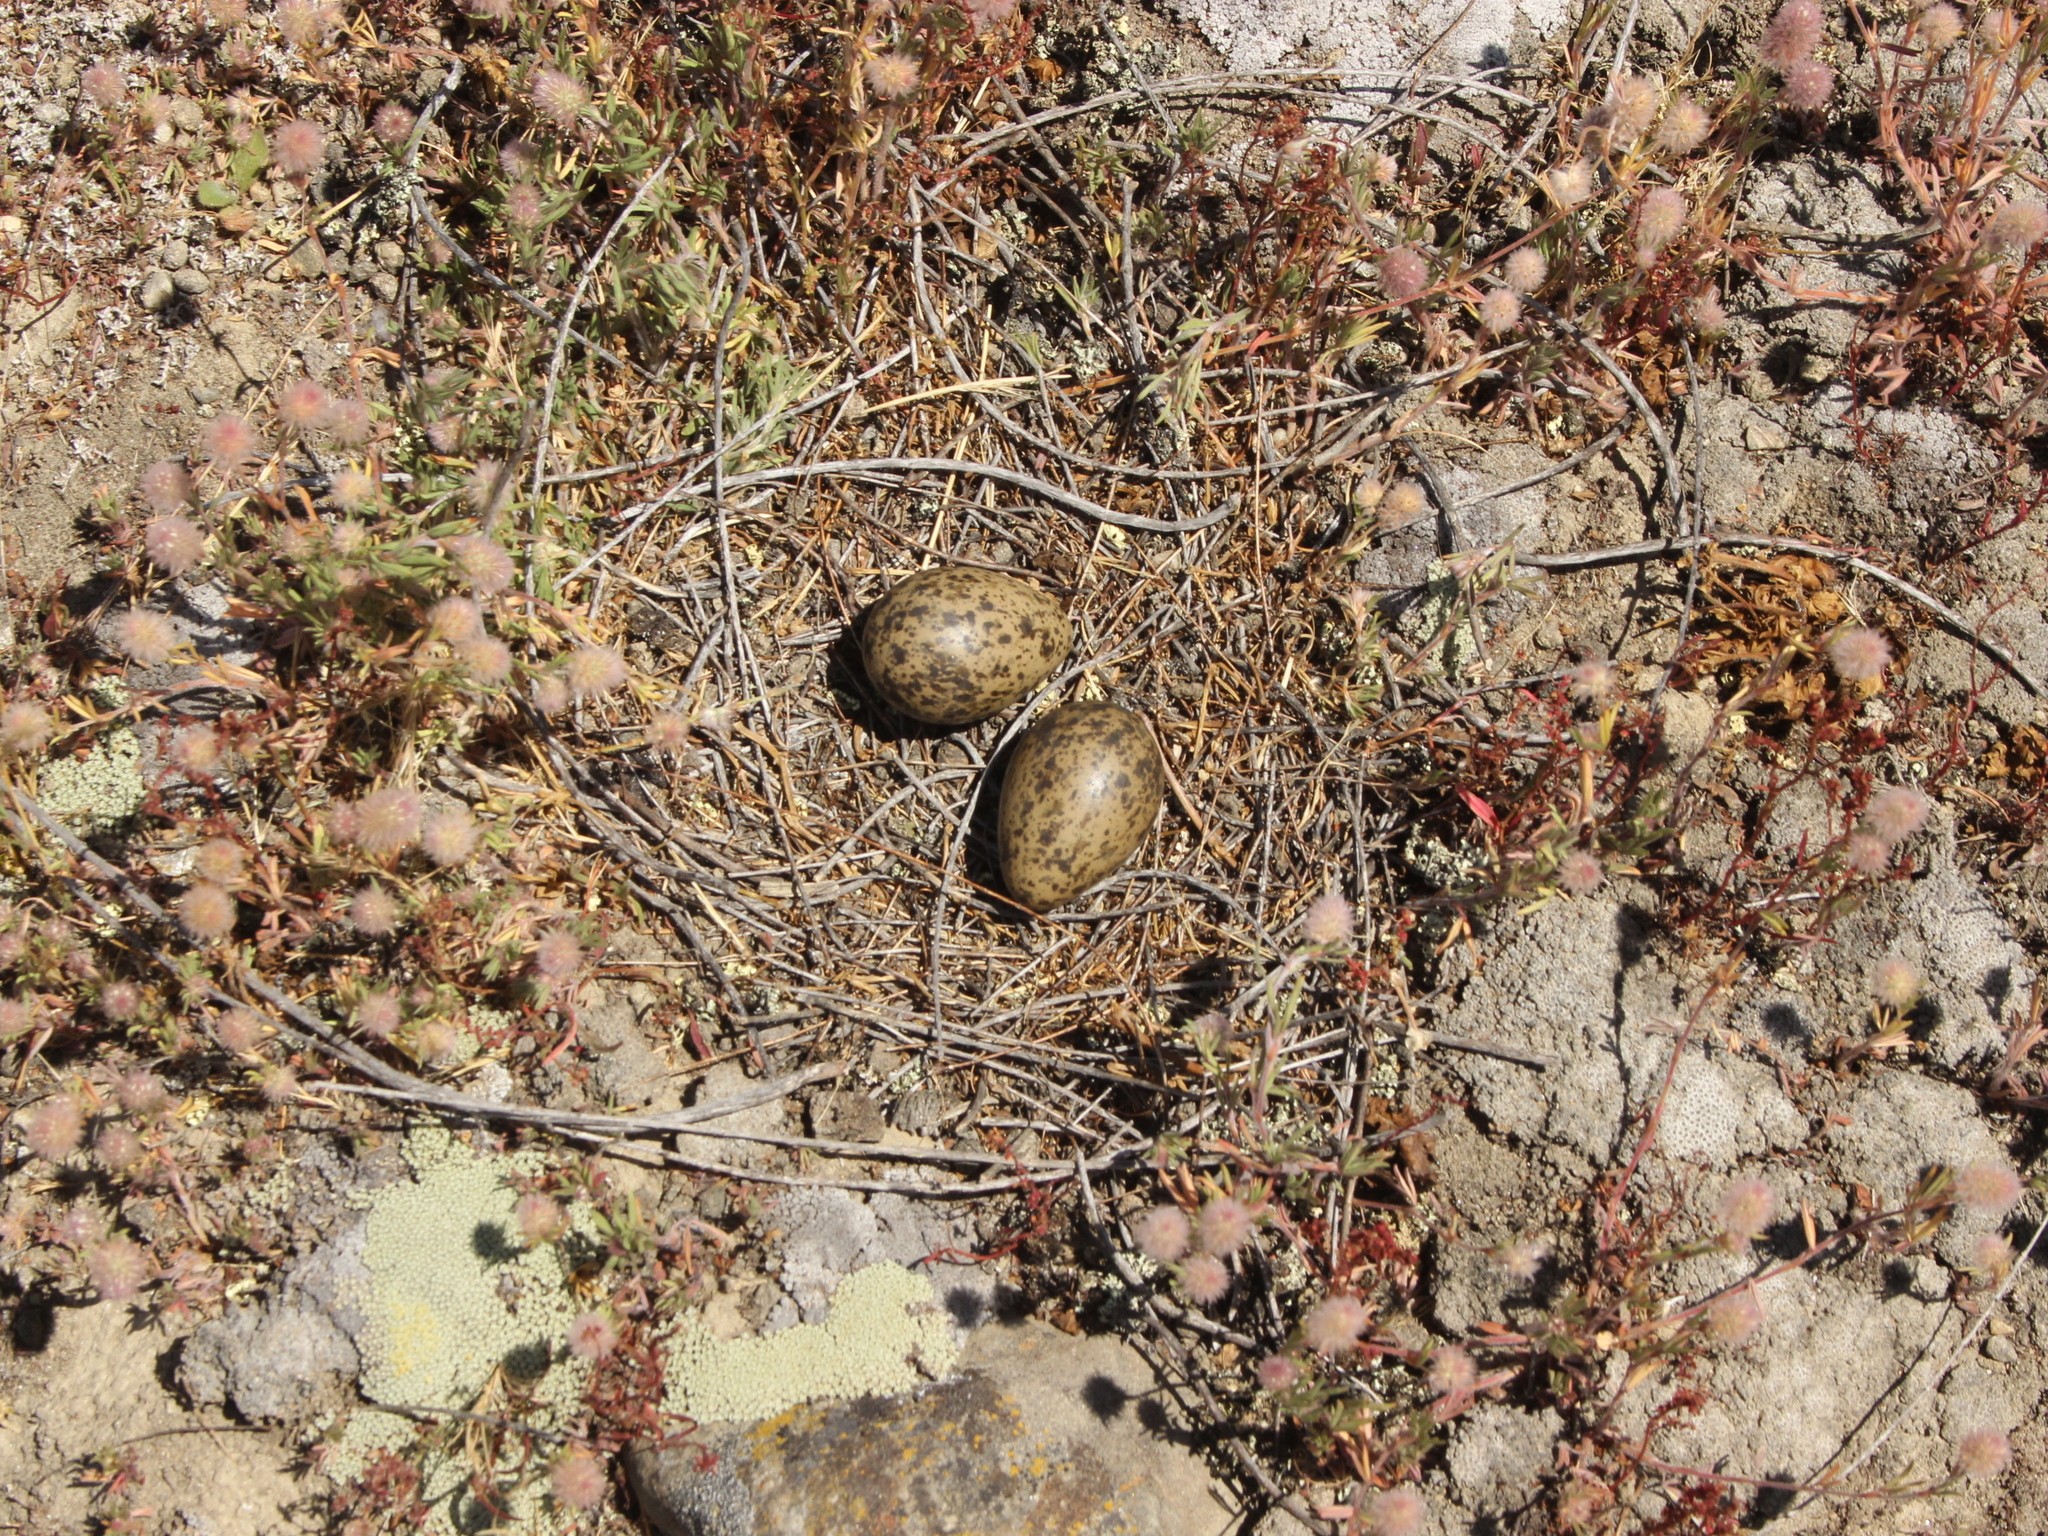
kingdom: Animalia
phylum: Chordata
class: Aves
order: Charadriiformes
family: Charadriidae
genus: Vanellus
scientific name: Vanellus miles
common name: Masked lapwing
